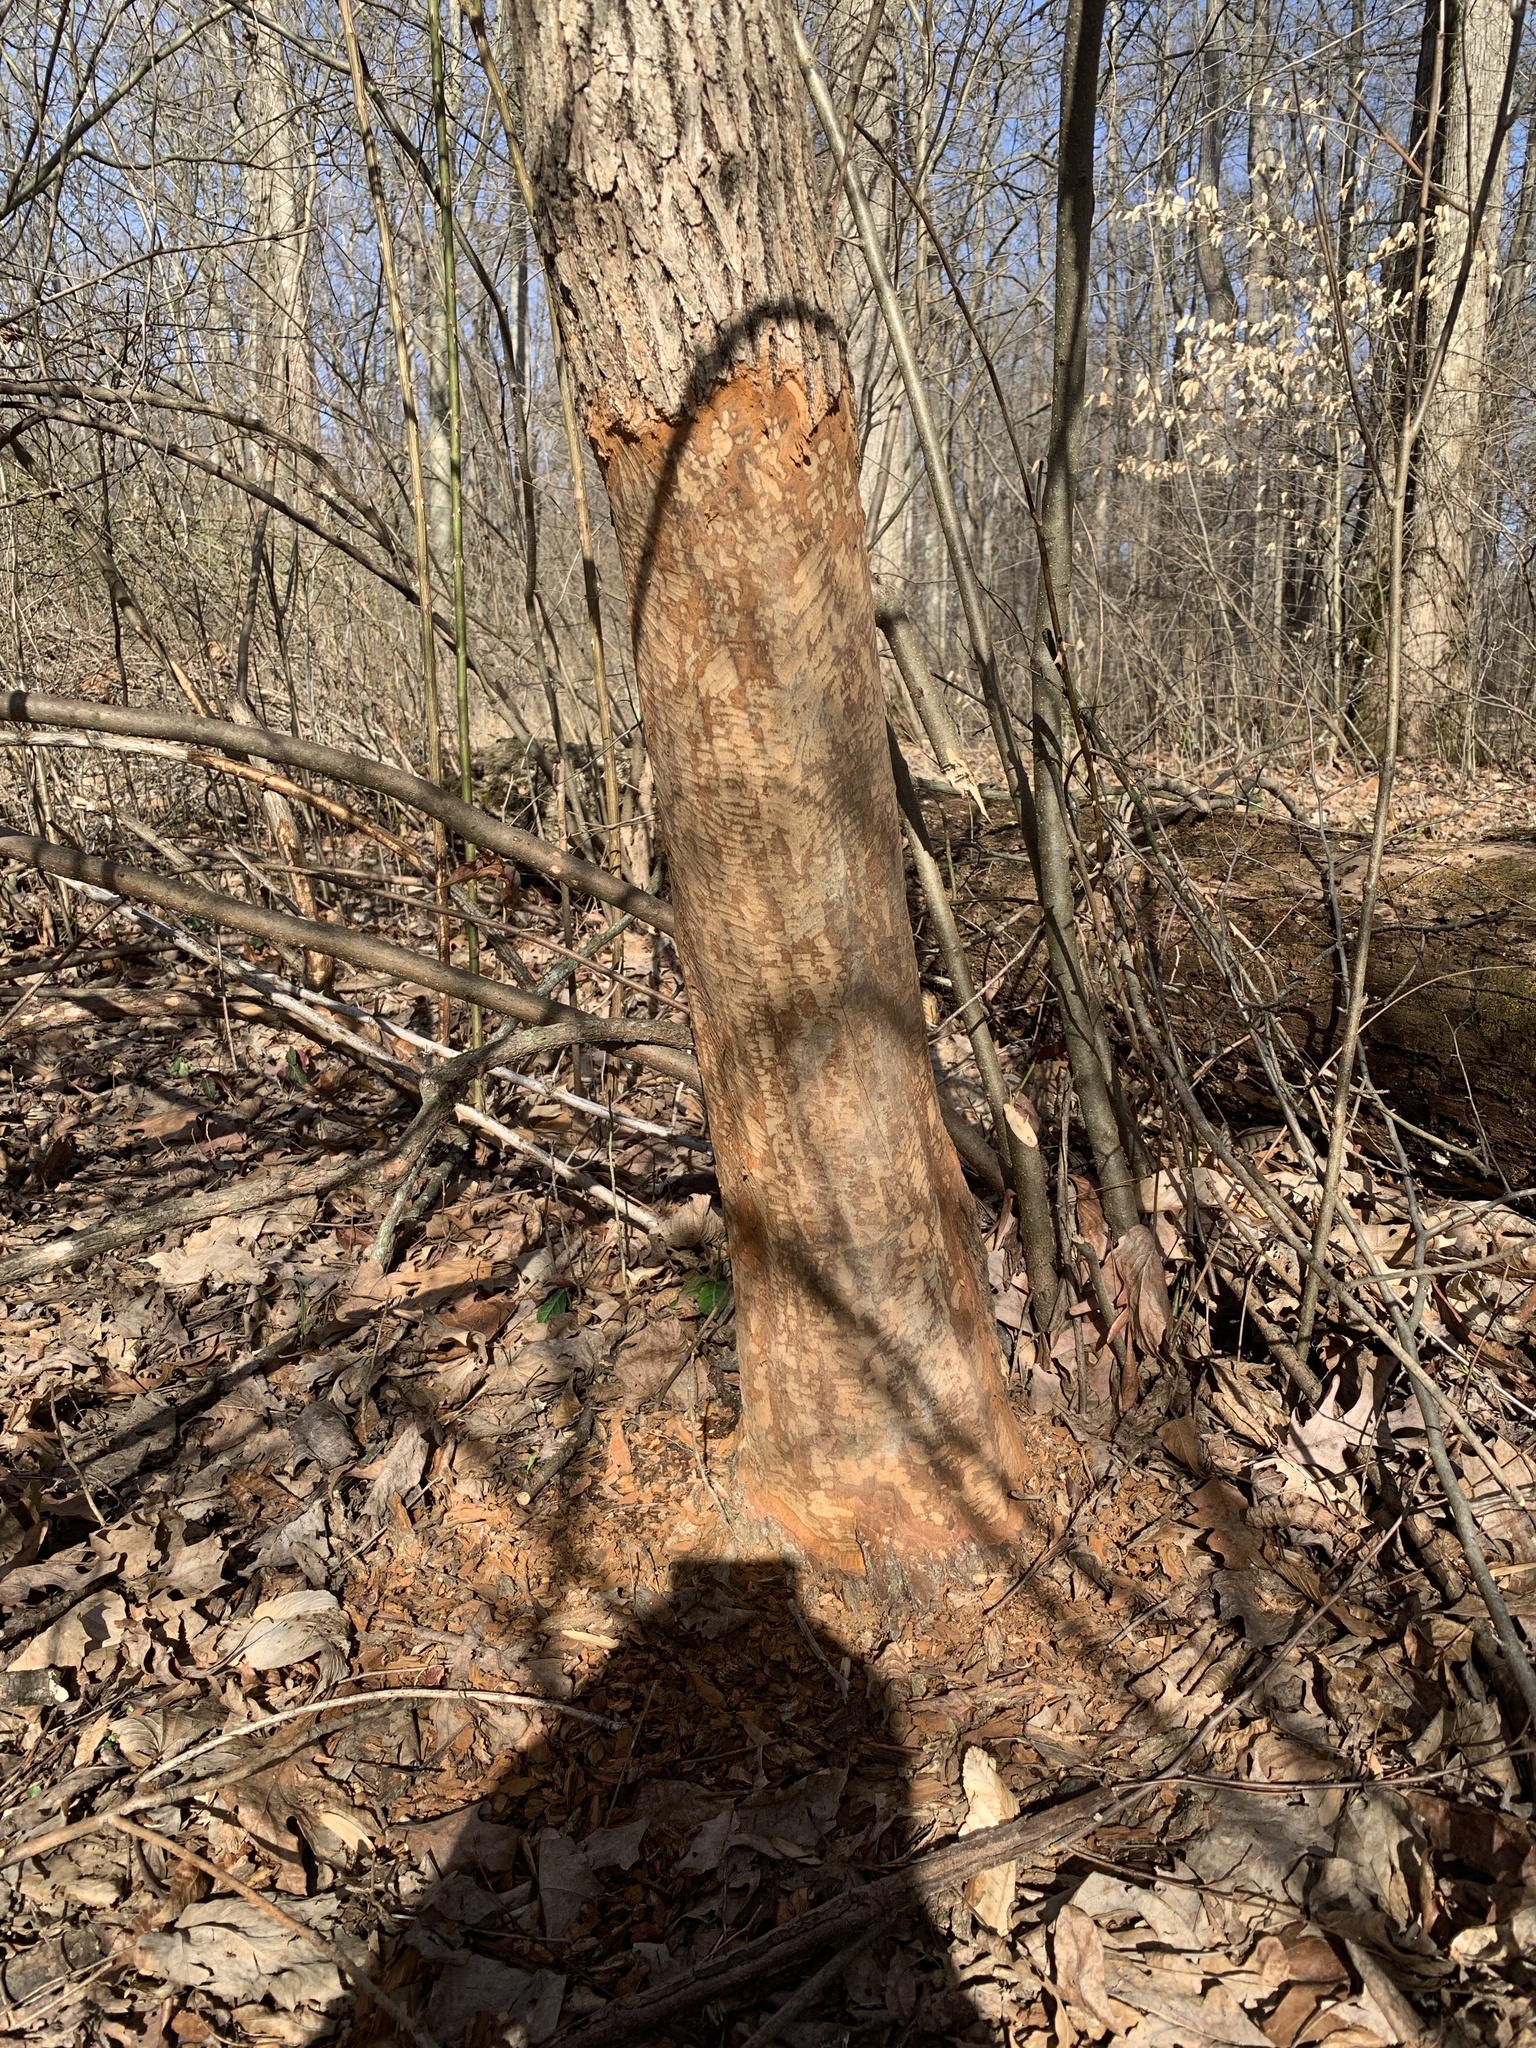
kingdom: Animalia
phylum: Chordata
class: Mammalia
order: Rodentia
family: Castoridae
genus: Castor
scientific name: Castor canadensis
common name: American beaver
